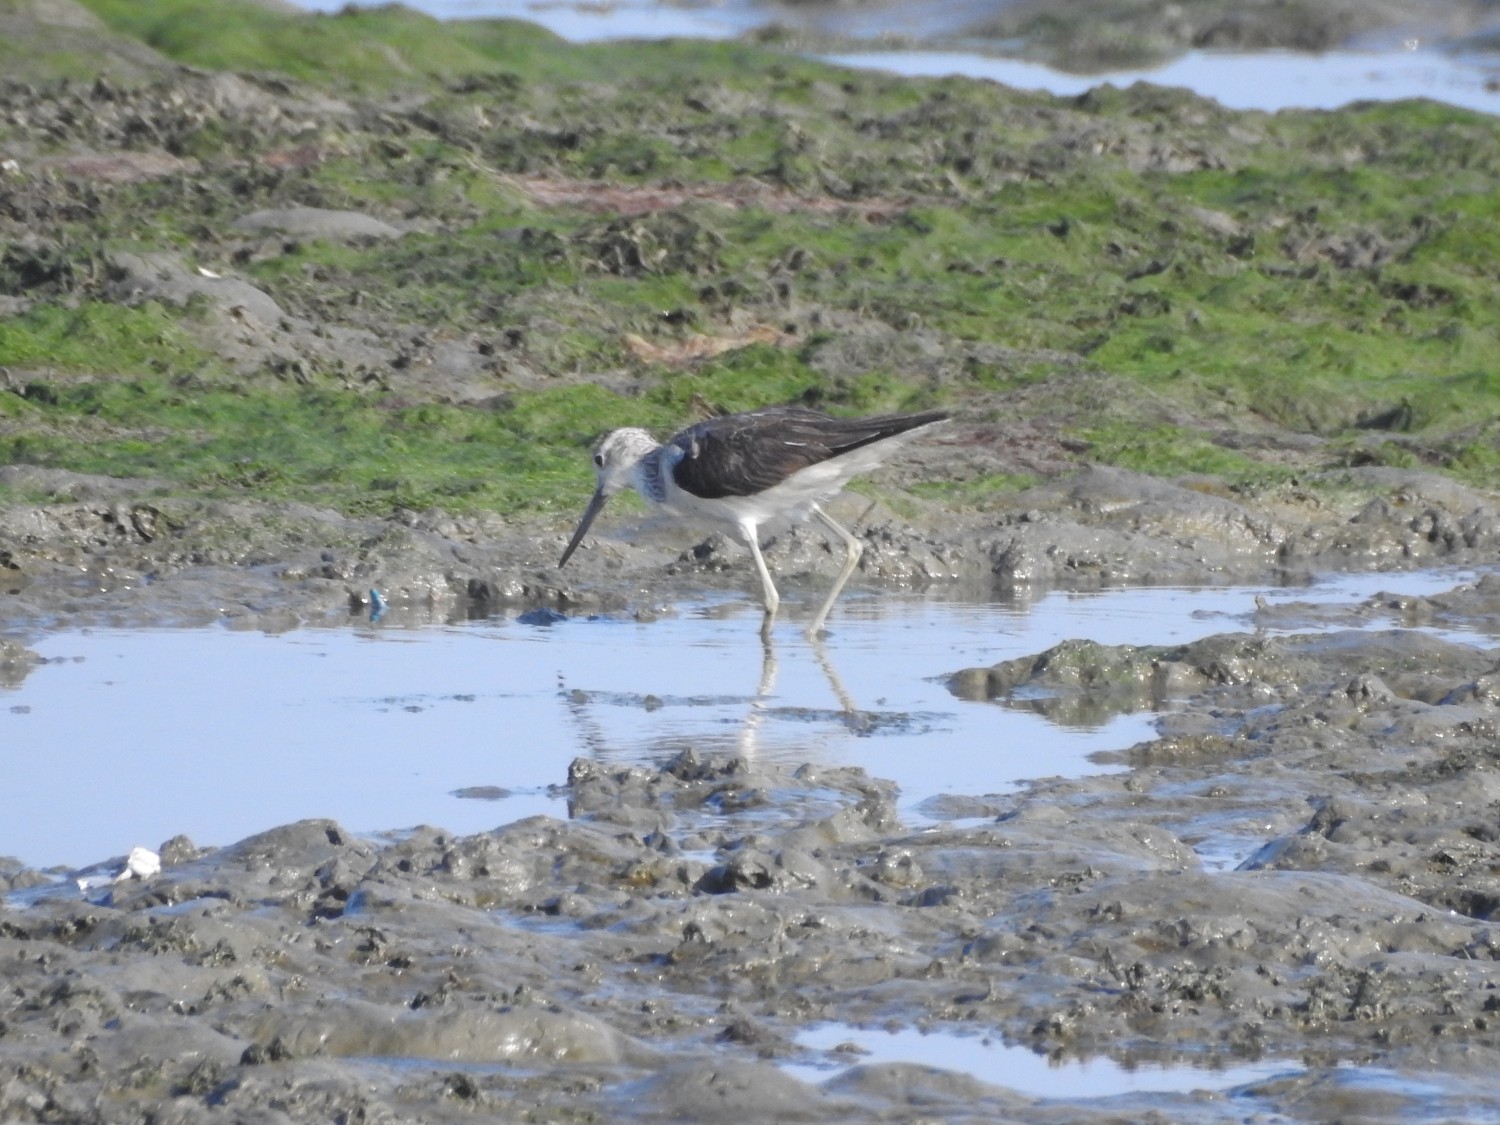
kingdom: Animalia
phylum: Chordata
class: Aves
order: Charadriiformes
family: Scolopacidae
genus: Tringa
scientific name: Tringa nebularia
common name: Common greenshank
